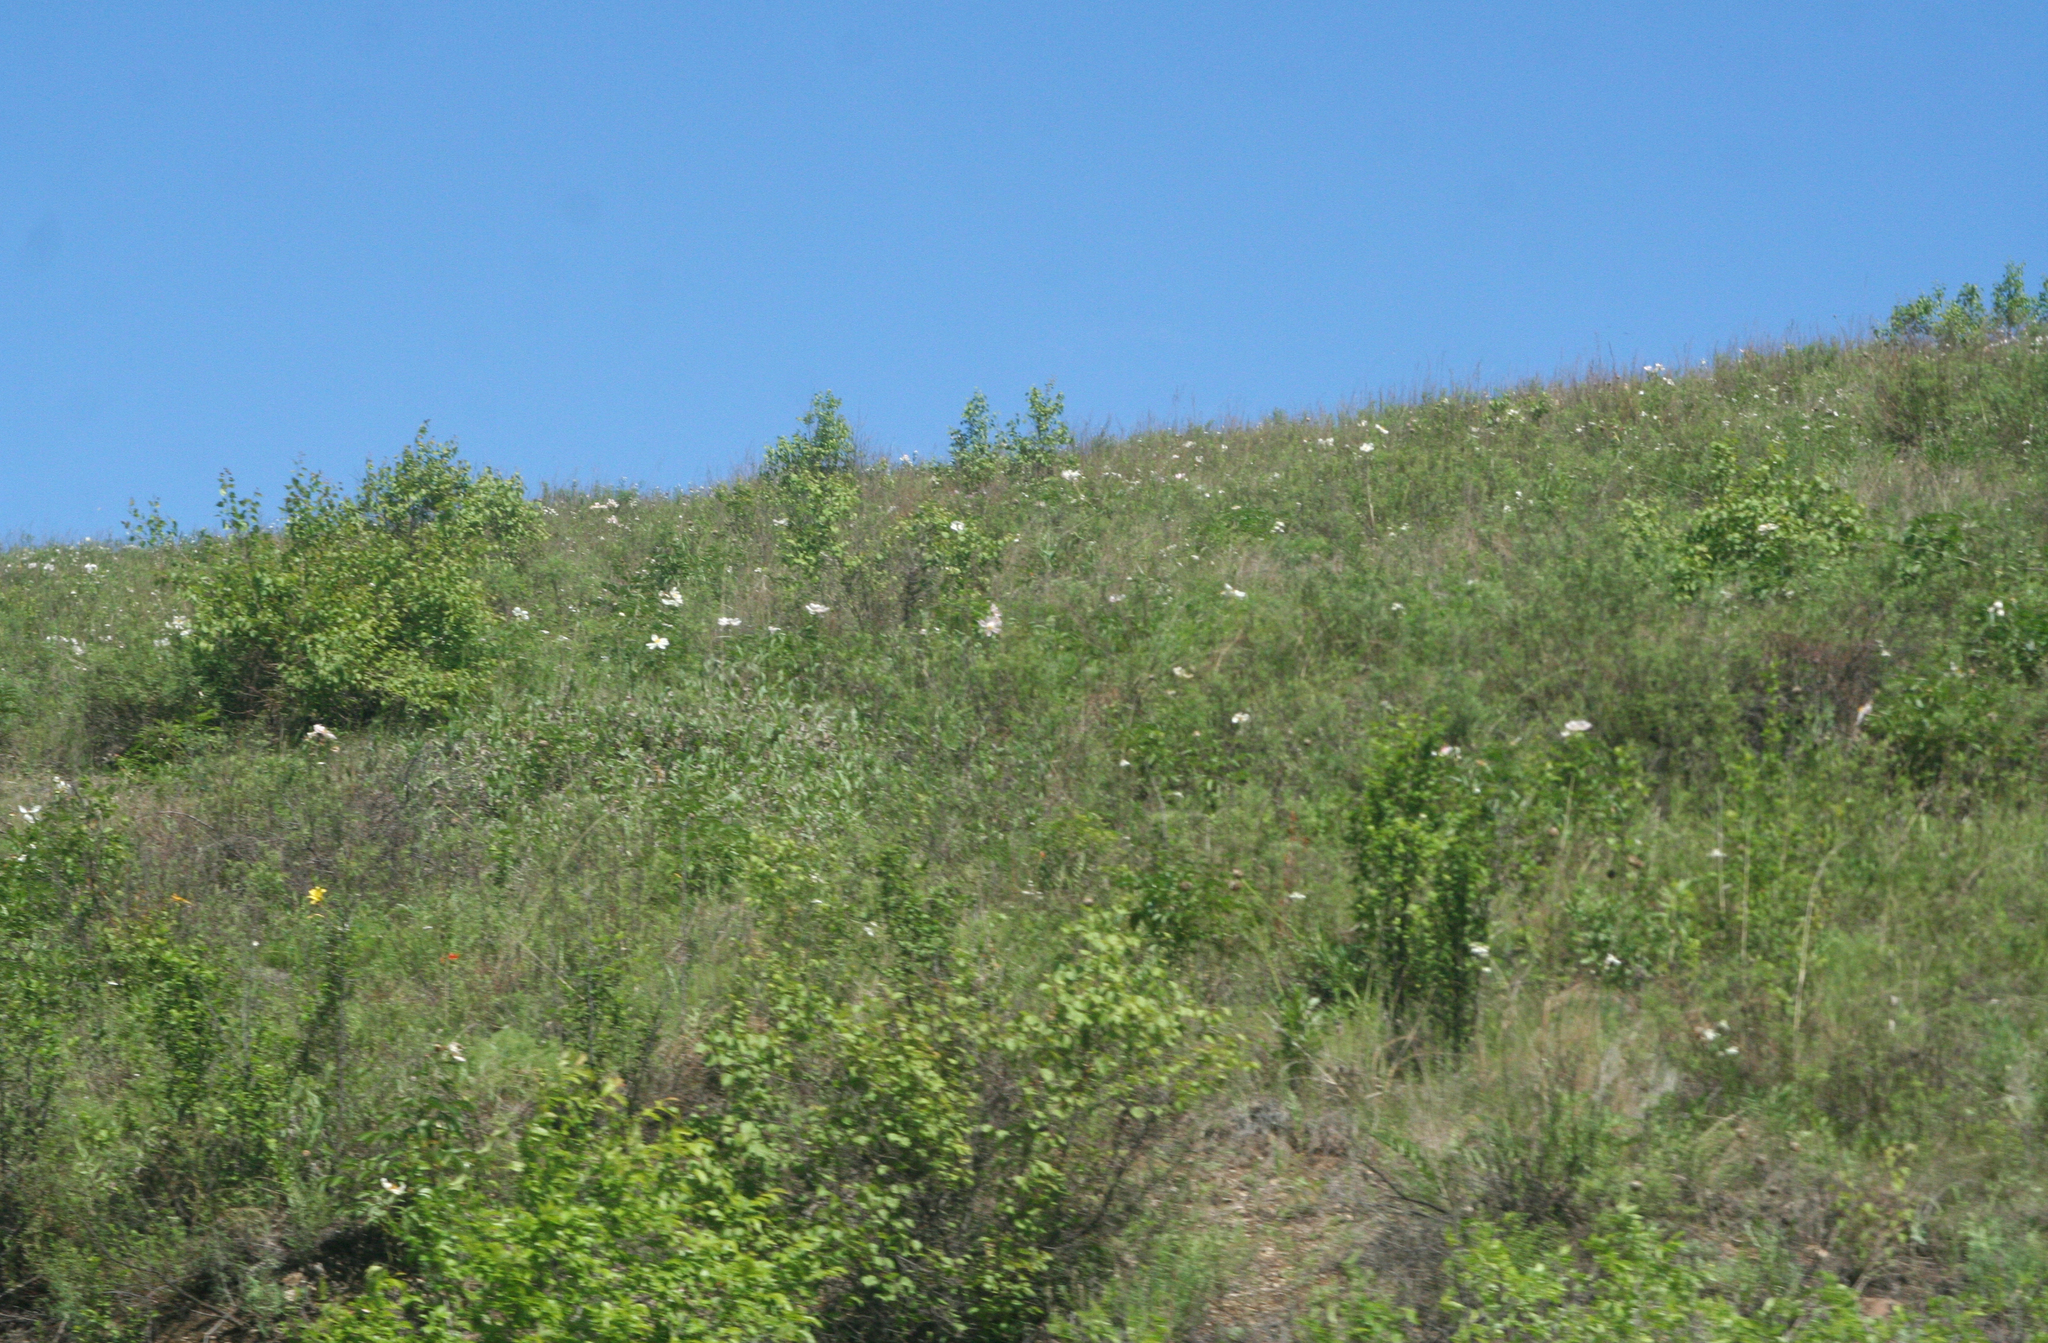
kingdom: Plantae
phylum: Tracheophyta
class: Magnoliopsida
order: Saxifragales
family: Paeoniaceae
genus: Paeonia
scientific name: Paeonia lactiflora
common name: Chinese peony
